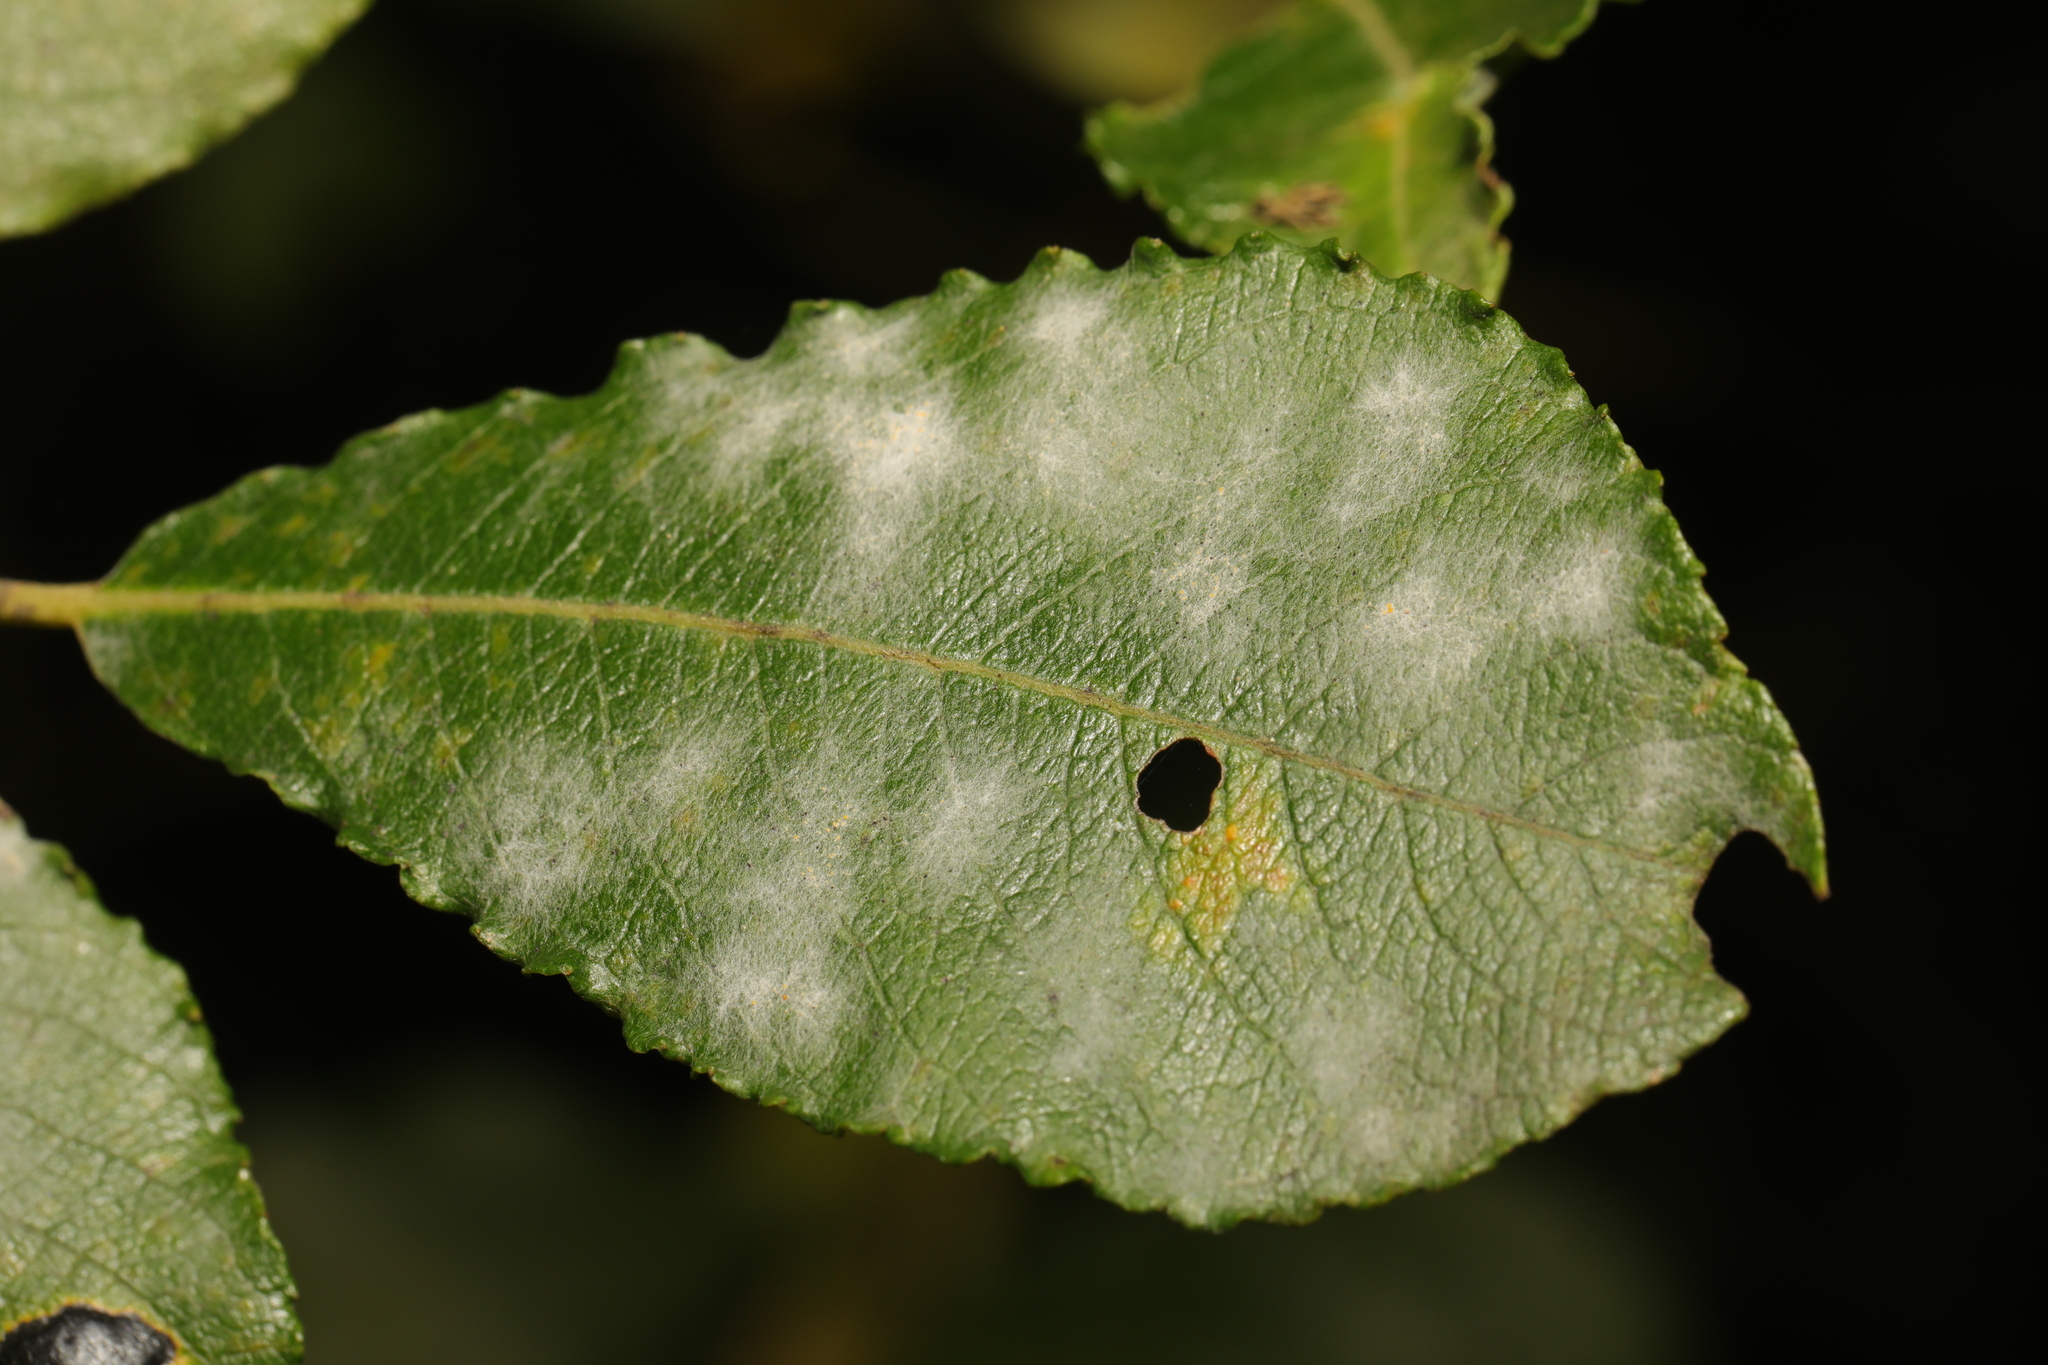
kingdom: Fungi
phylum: Ascomycota
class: Leotiomycetes
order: Helotiales
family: Erysiphaceae
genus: Erysiphe
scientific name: Erysiphe capreae
